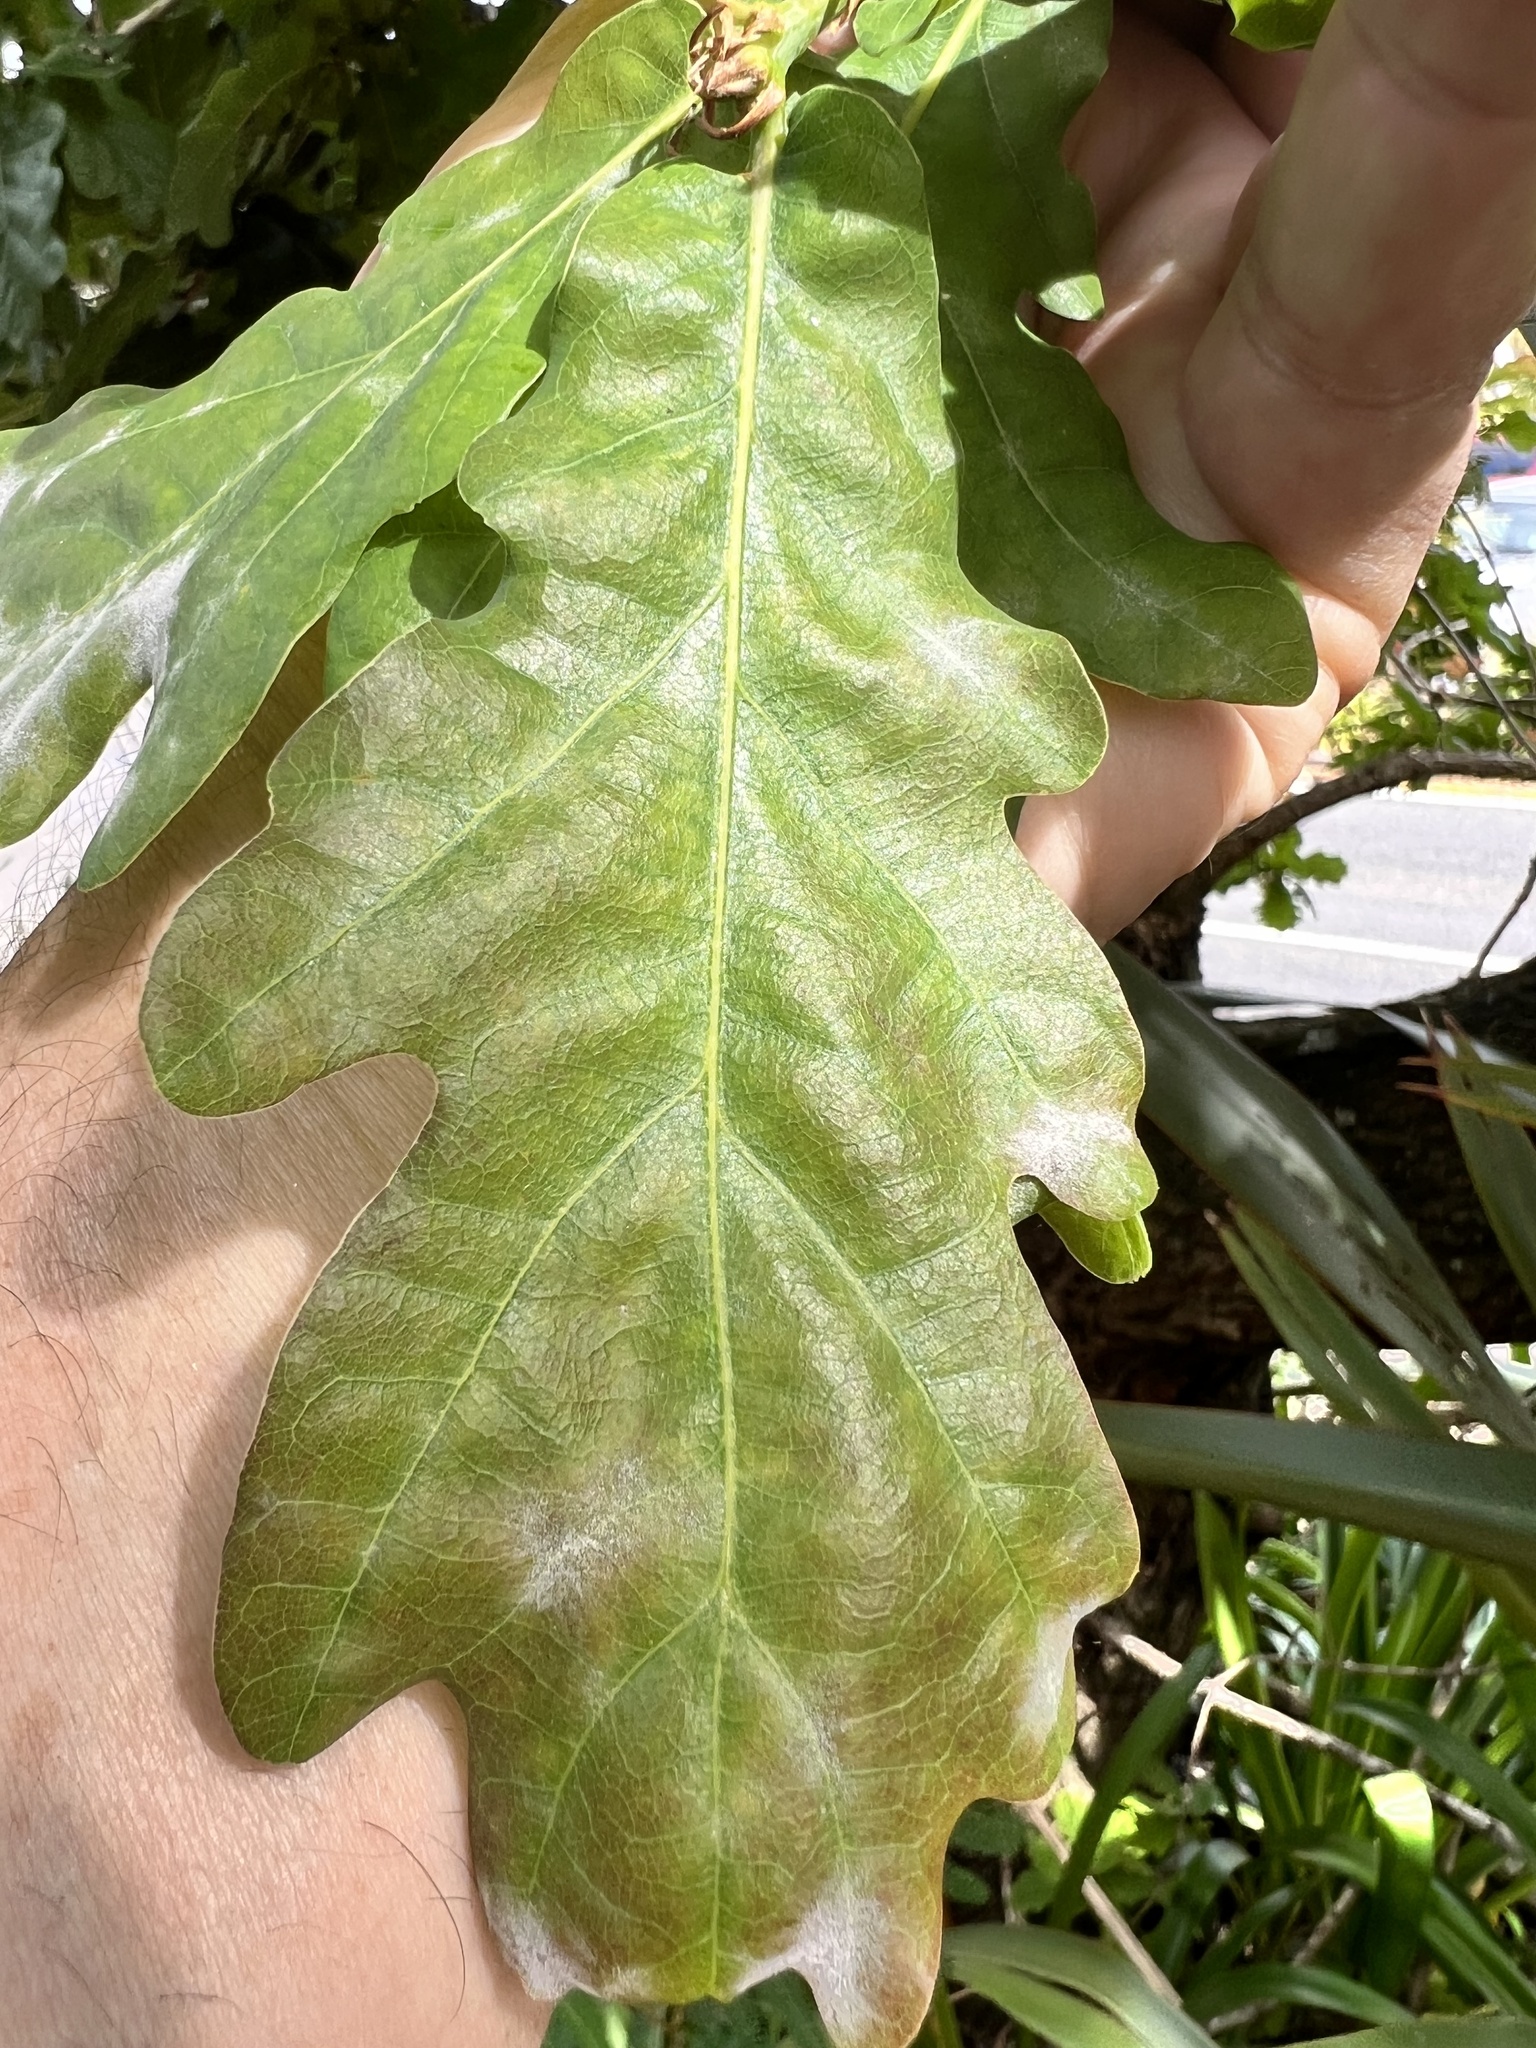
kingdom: Animalia
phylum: Arthropoda
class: Insecta
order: Lepidoptera
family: Gracillariidae
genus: Phyllonorycter
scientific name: Phyllonorycter messaniella
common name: Garden midget
